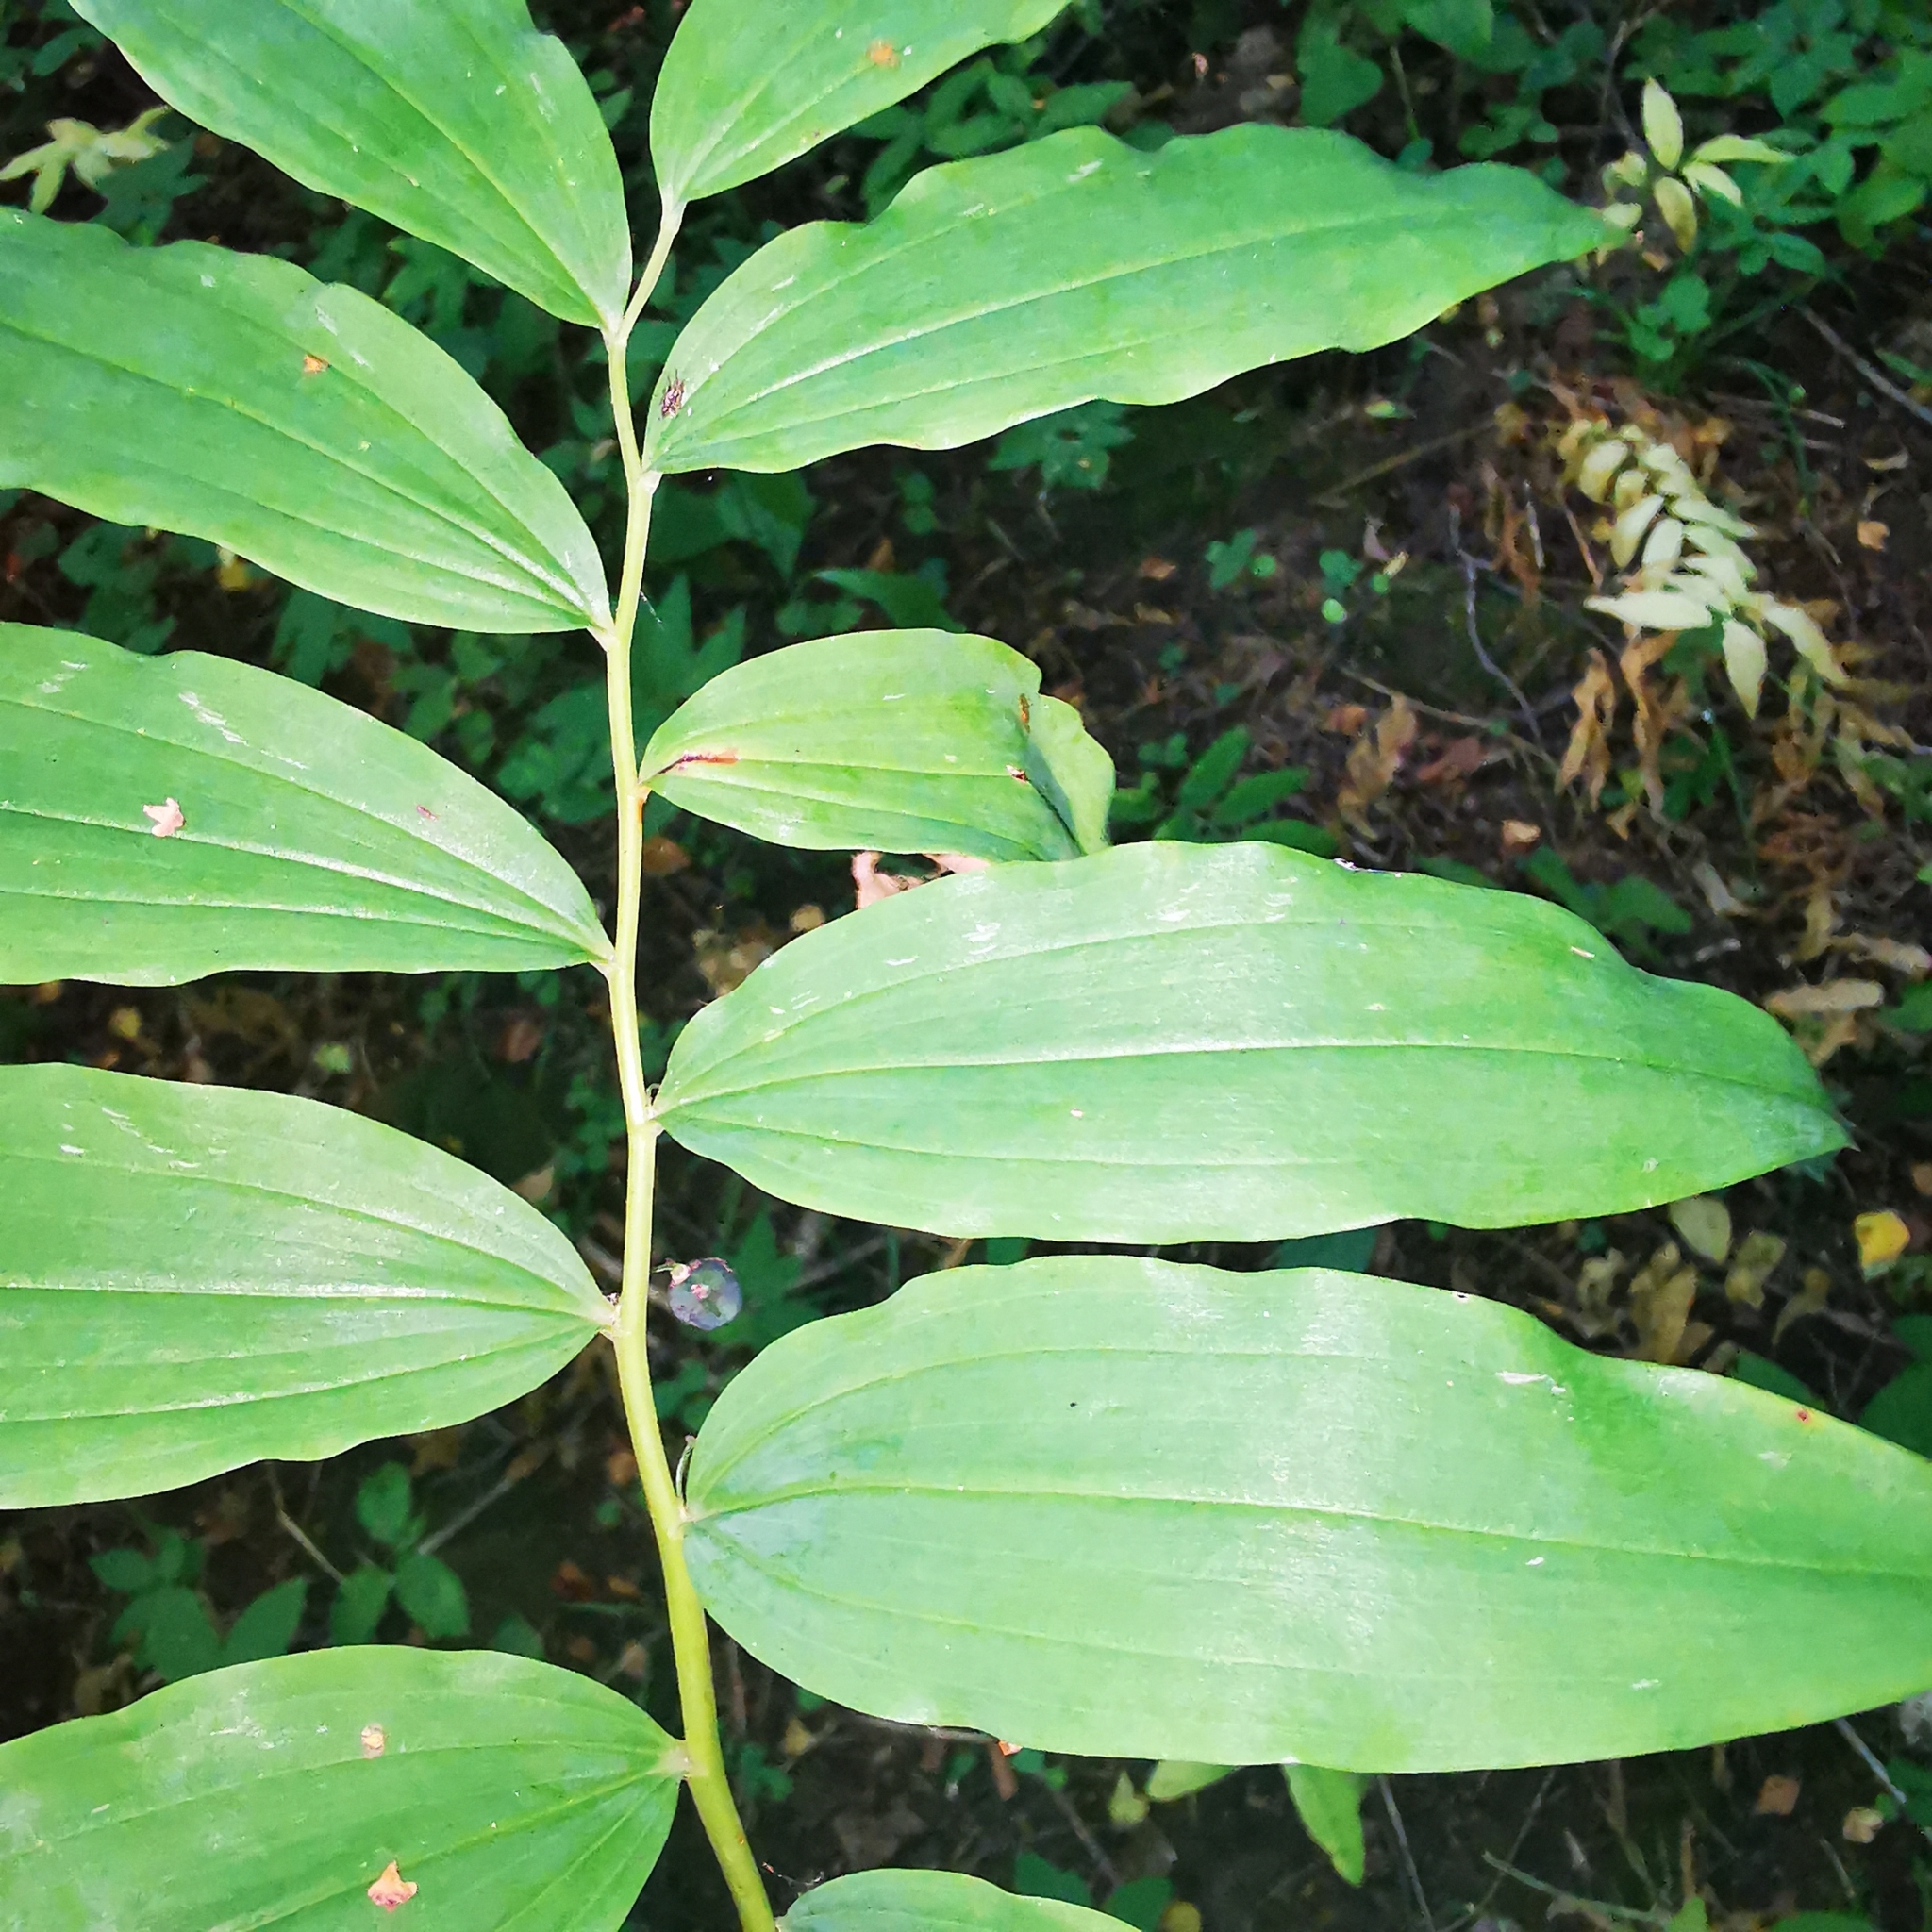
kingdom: Plantae
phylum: Tracheophyta
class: Liliopsida
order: Asparagales
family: Asparagaceae
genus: Polygonatum
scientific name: Polygonatum multiflorum
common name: Solomon's-seal
